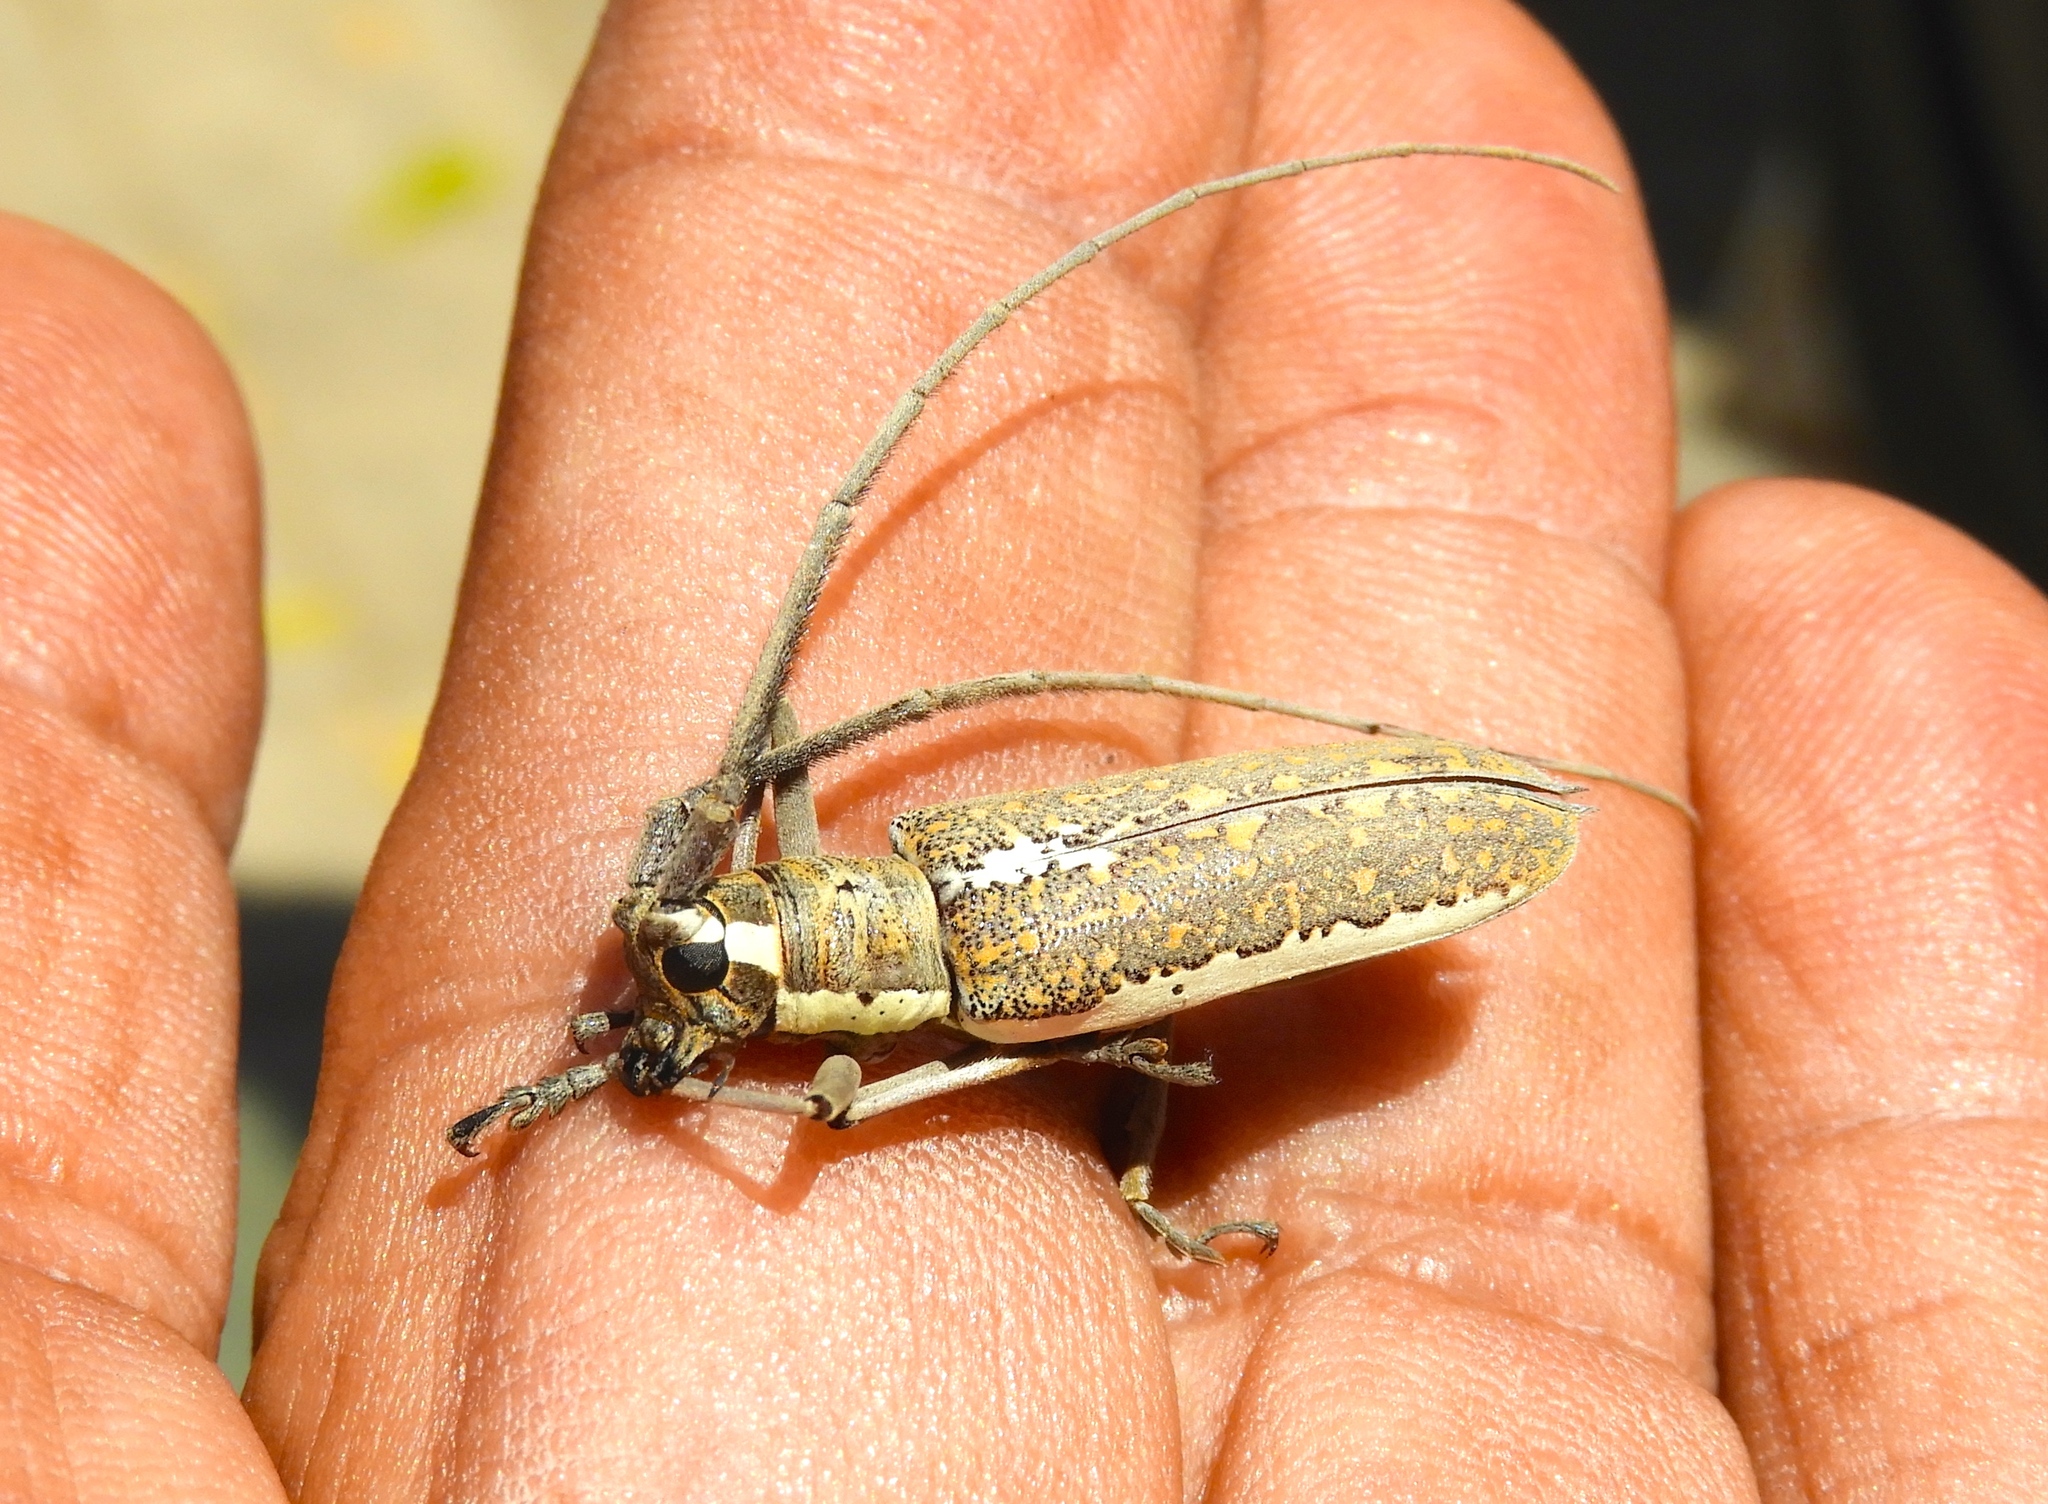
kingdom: Animalia
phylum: Arthropoda
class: Insecta
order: Coleoptera
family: Cerambycidae
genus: Neoptychodes
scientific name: Neoptychodes trilineatus
